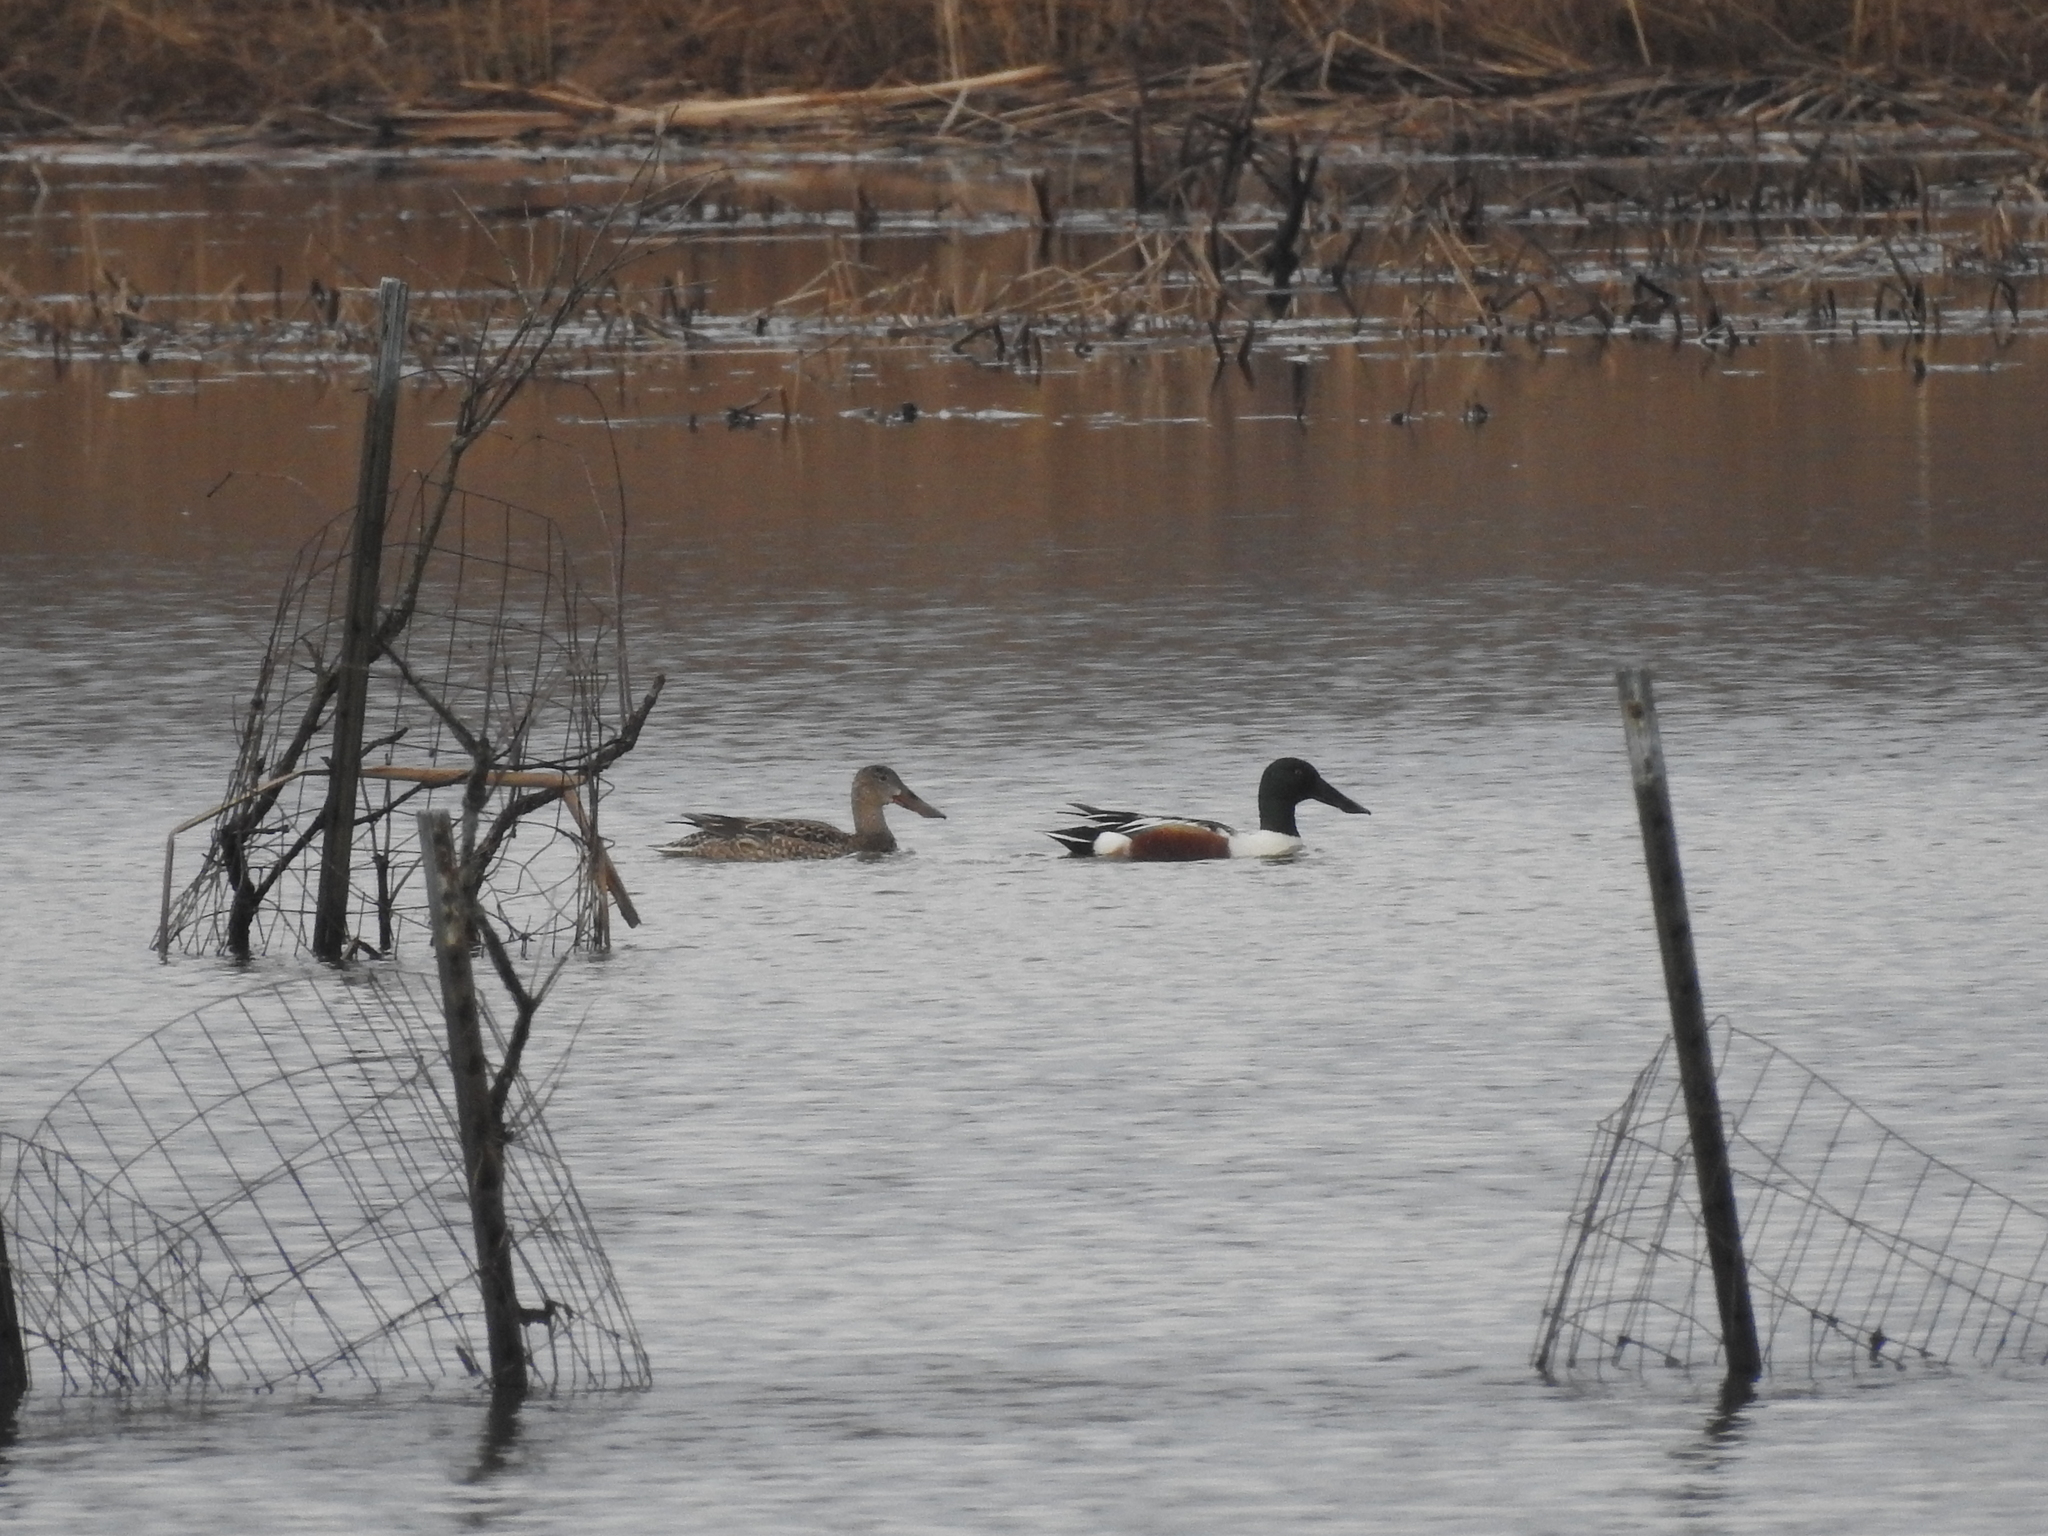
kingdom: Animalia
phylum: Chordata
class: Aves
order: Anseriformes
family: Anatidae
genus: Spatula
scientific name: Spatula clypeata
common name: Northern shoveler
